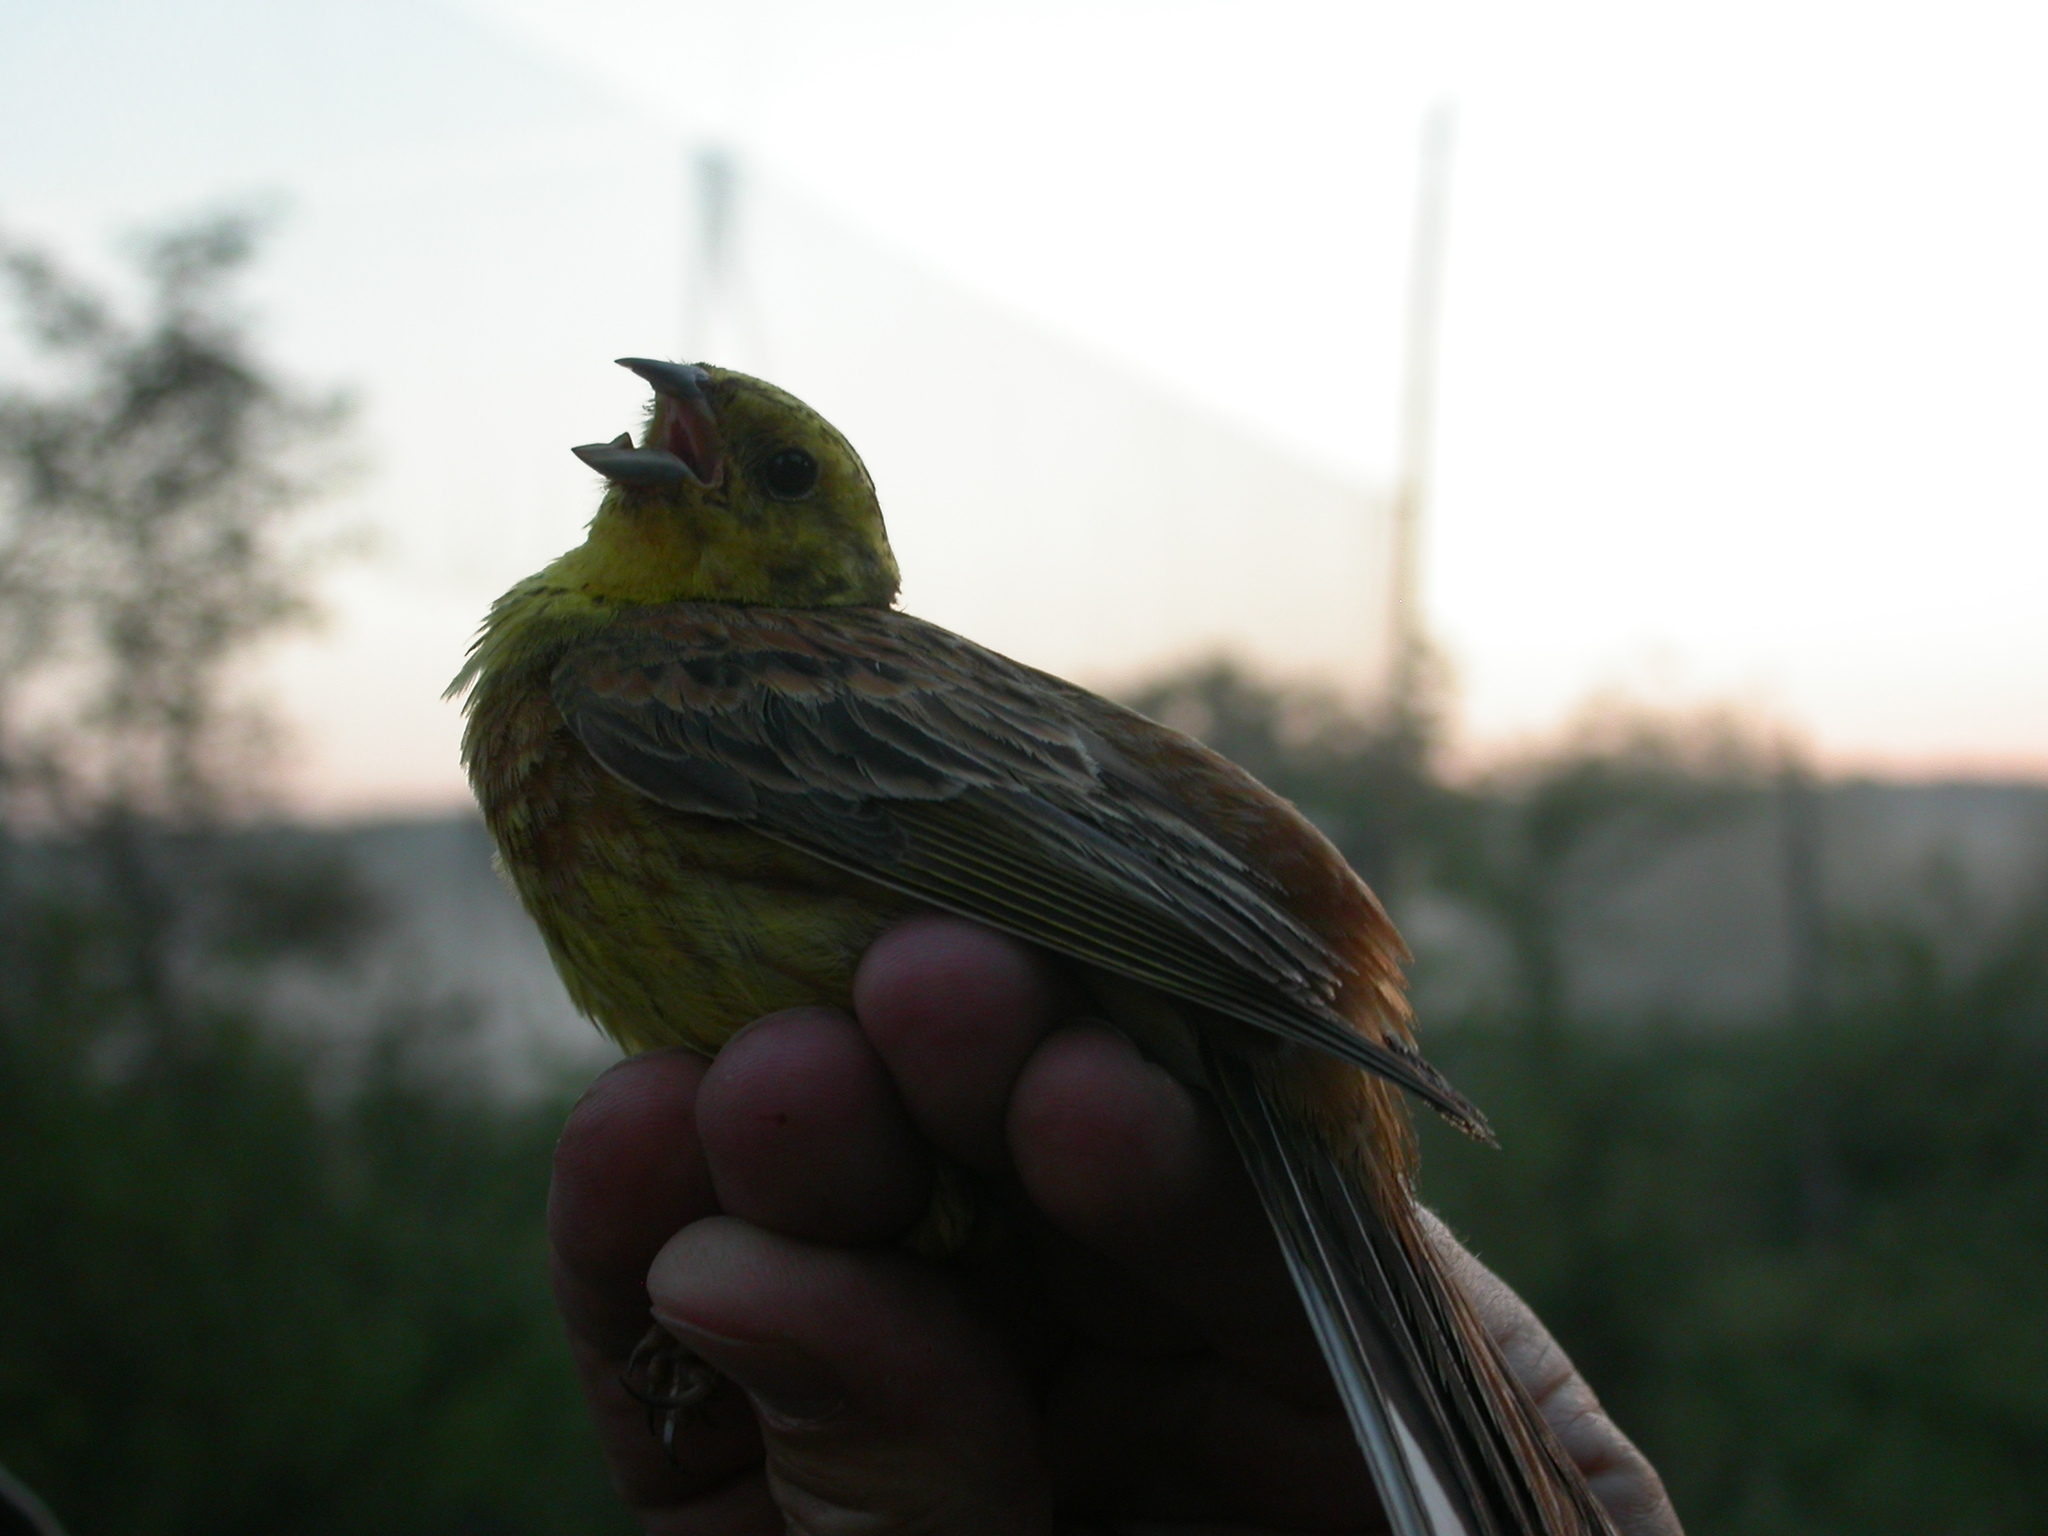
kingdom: Animalia
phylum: Chordata
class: Aves
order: Passeriformes
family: Emberizidae
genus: Emberiza
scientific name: Emberiza citrinella
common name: Yellowhammer
